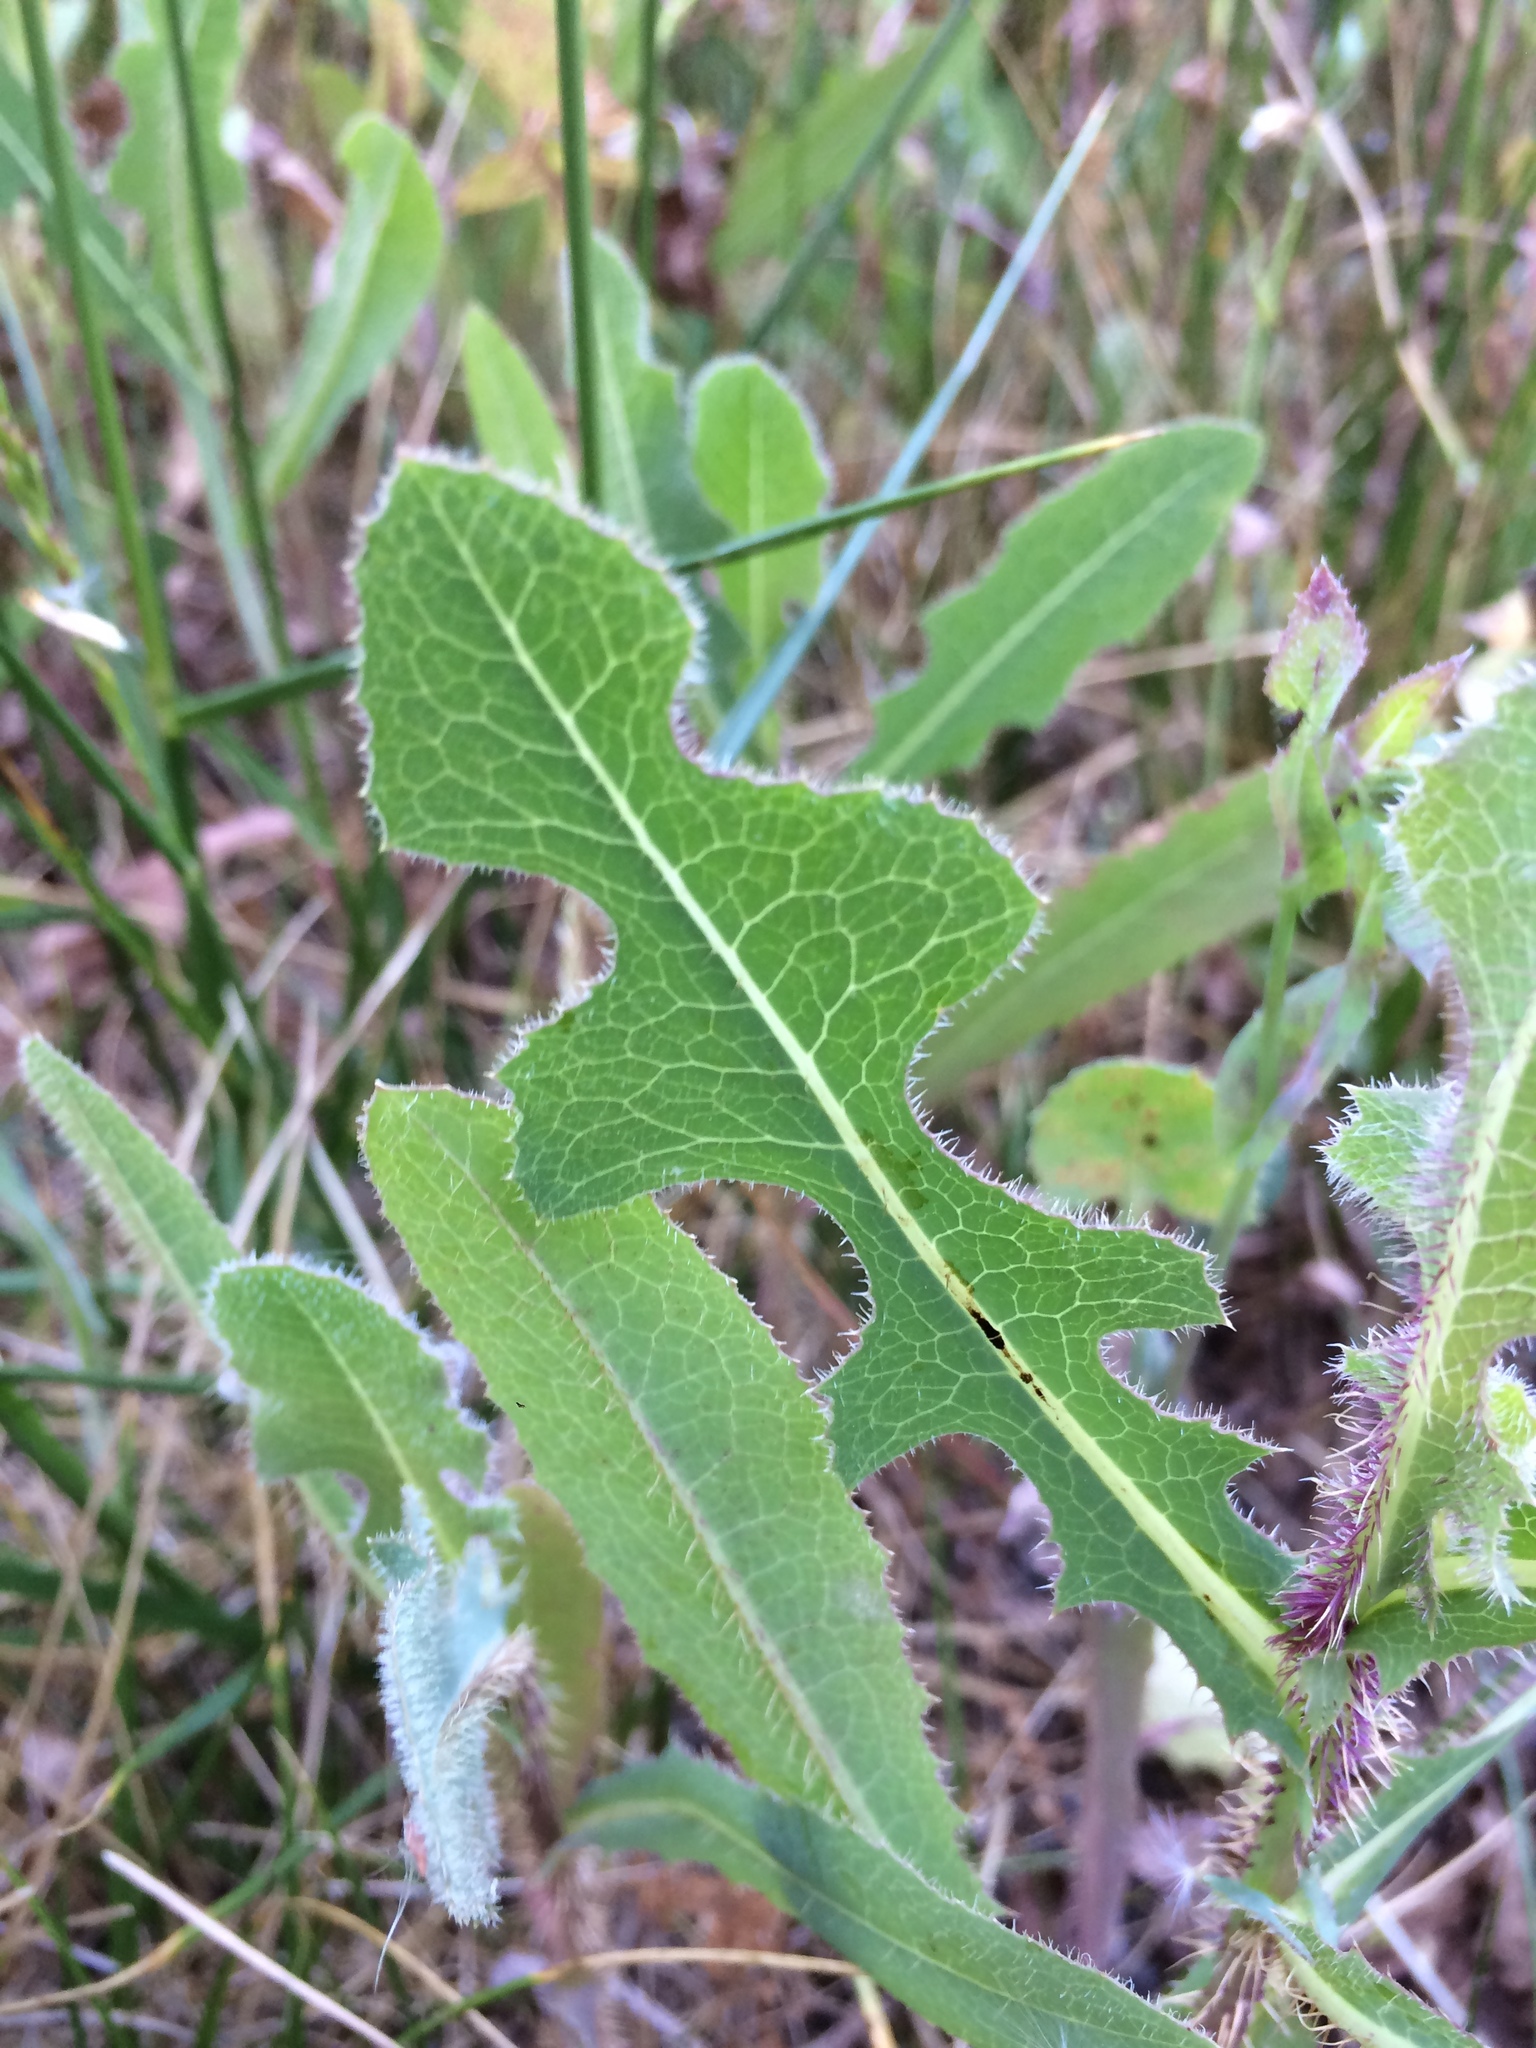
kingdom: Plantae
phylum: Tracheophyta
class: Magnoliopsida
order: Asterales
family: Asteraceae
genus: Lactuca
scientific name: Lactuca serriola
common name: Prickly lettuce
